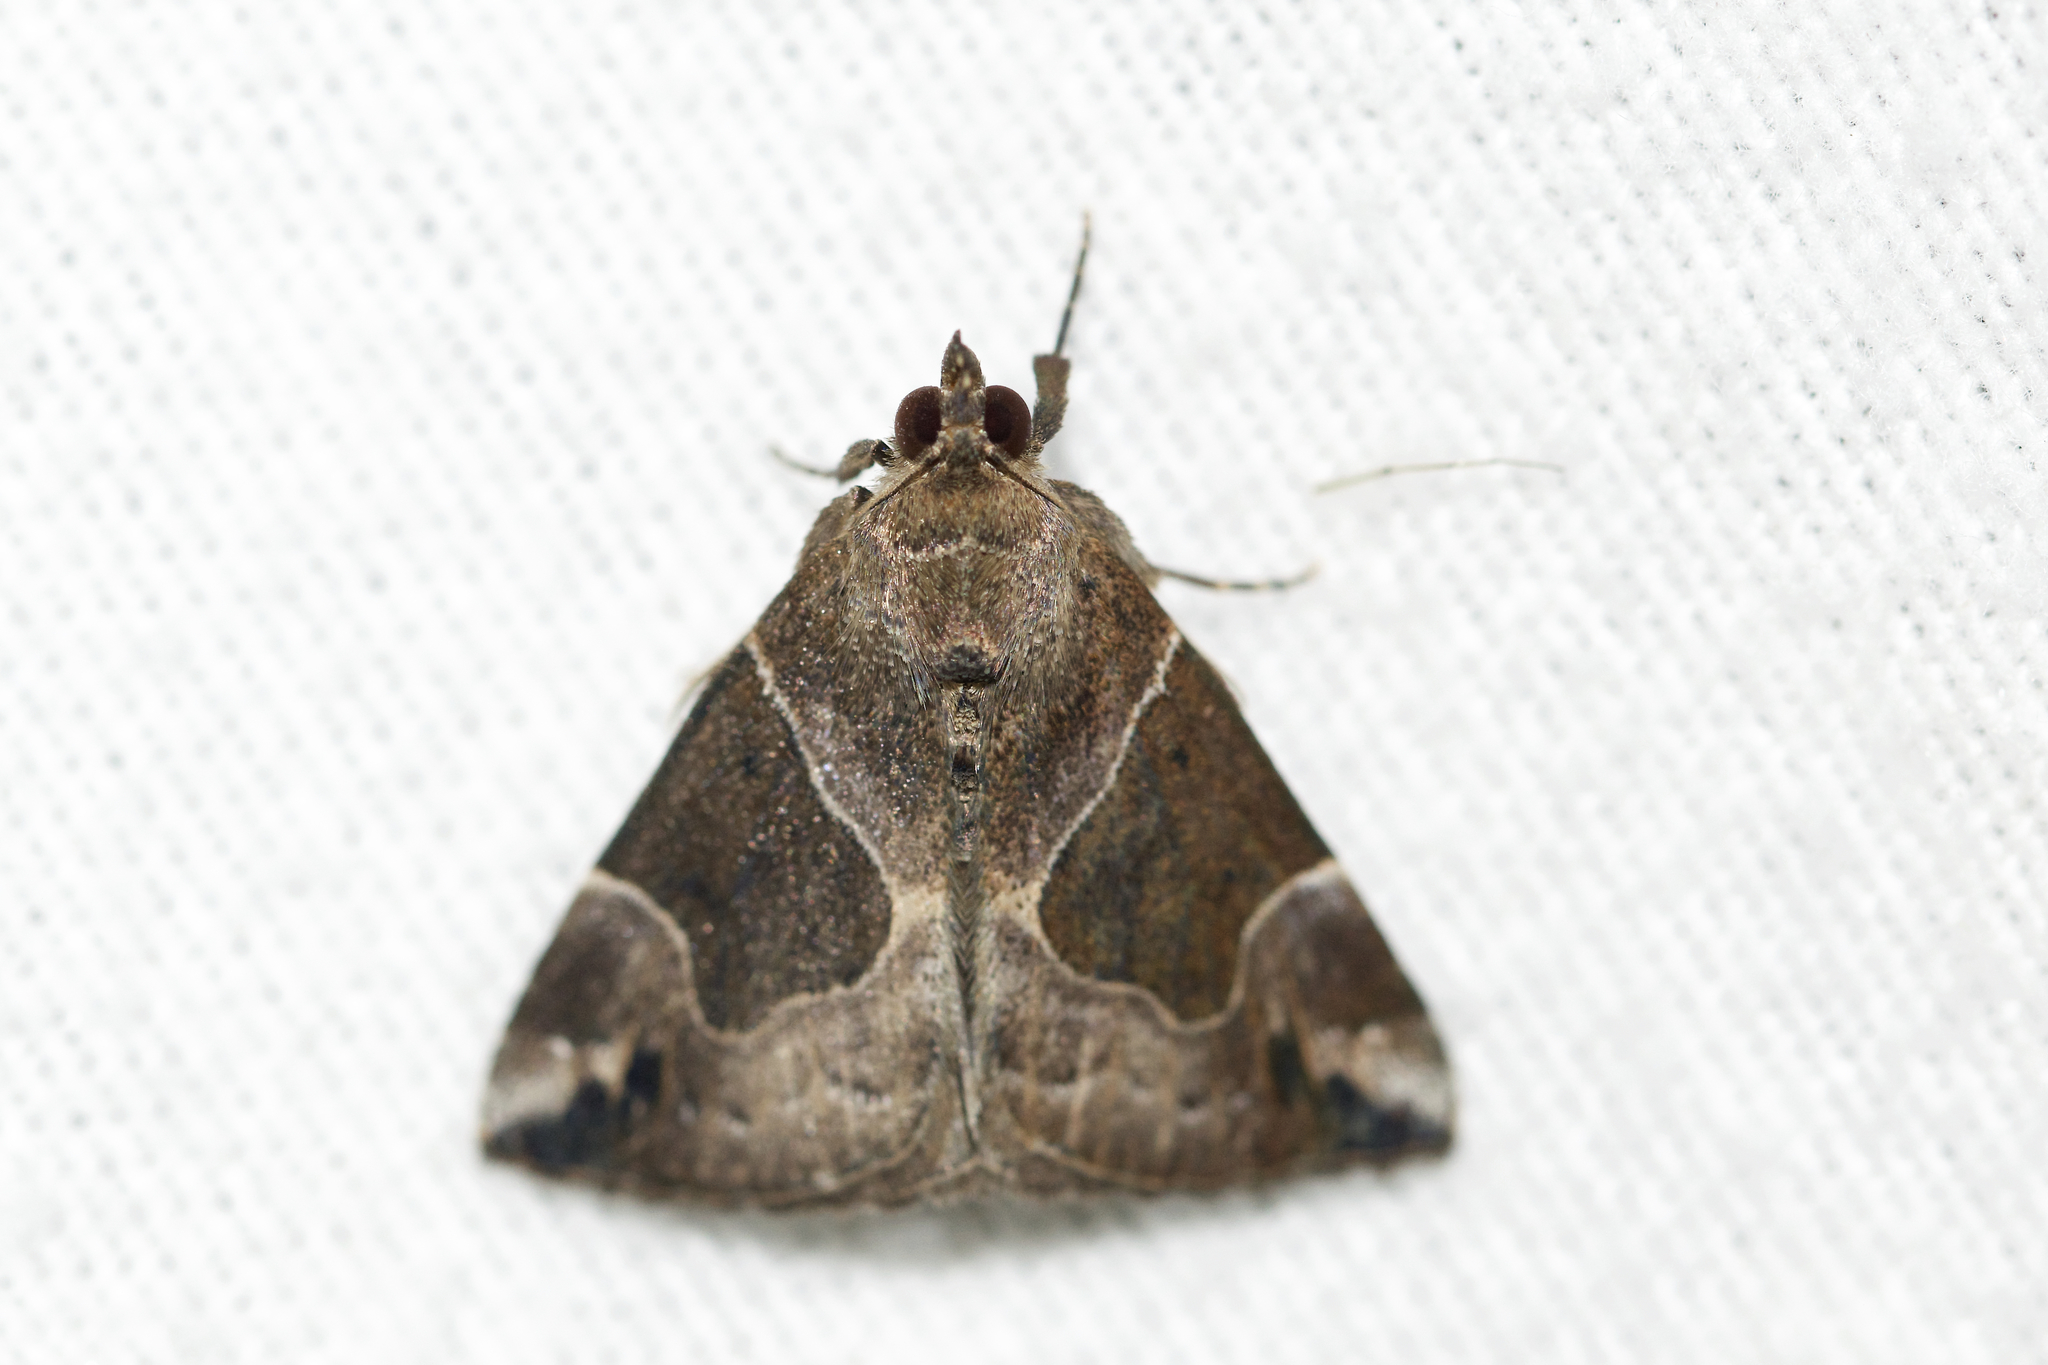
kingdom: Animalia
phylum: Arthropoda
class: Insecta
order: Lepidoptera
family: Erebidae
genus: Hypena
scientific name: Hypena manalis
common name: Flowing-line bomolocha moth
